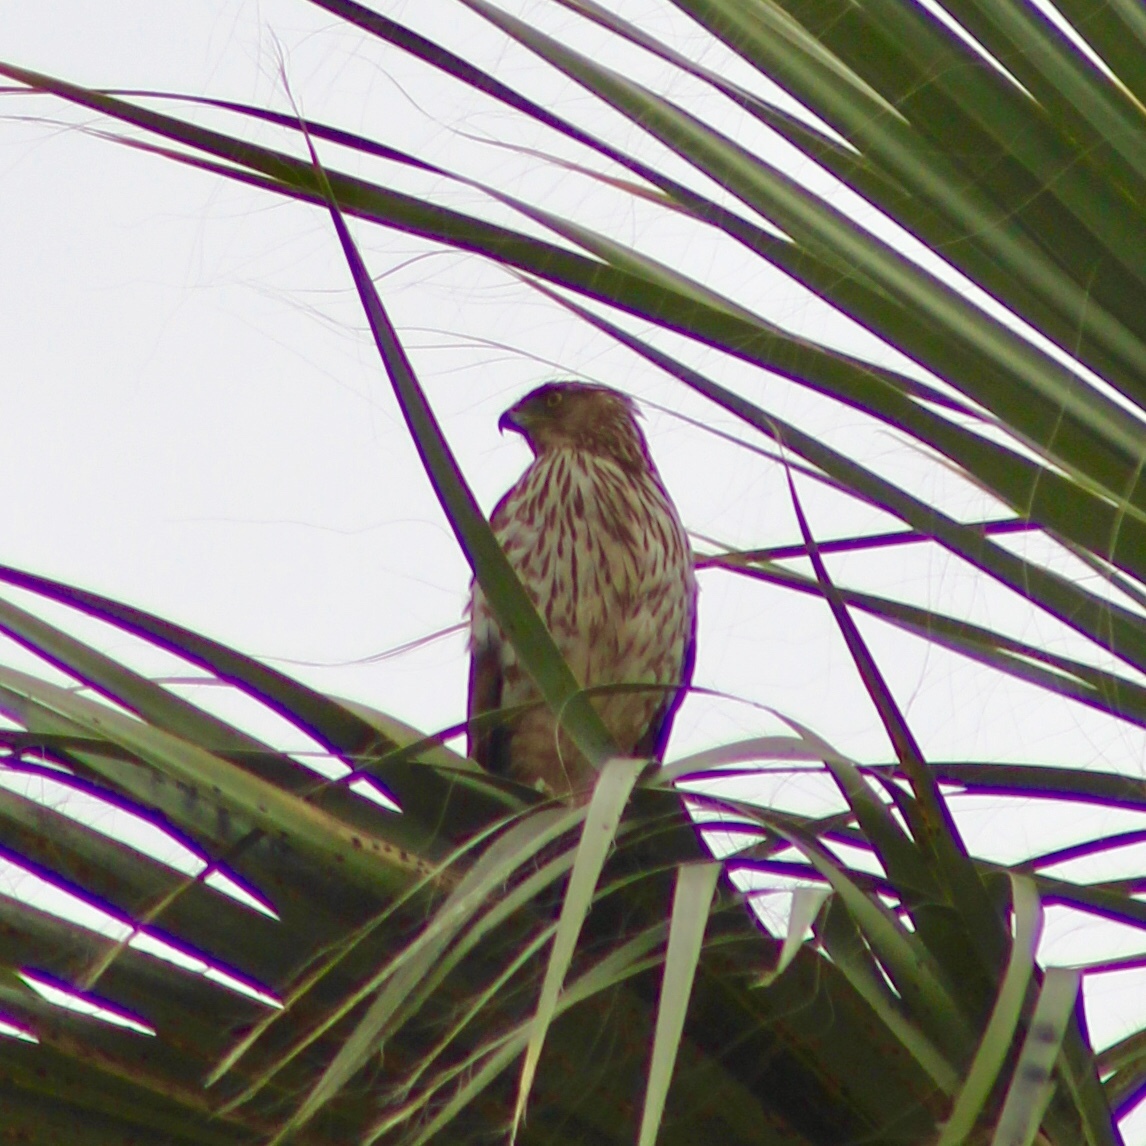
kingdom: Animalia
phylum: Chordata
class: Aves
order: Accipitriformes
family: Accipitridae
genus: Accipiter
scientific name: Accipiter cooperii
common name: Cooper's hawk
